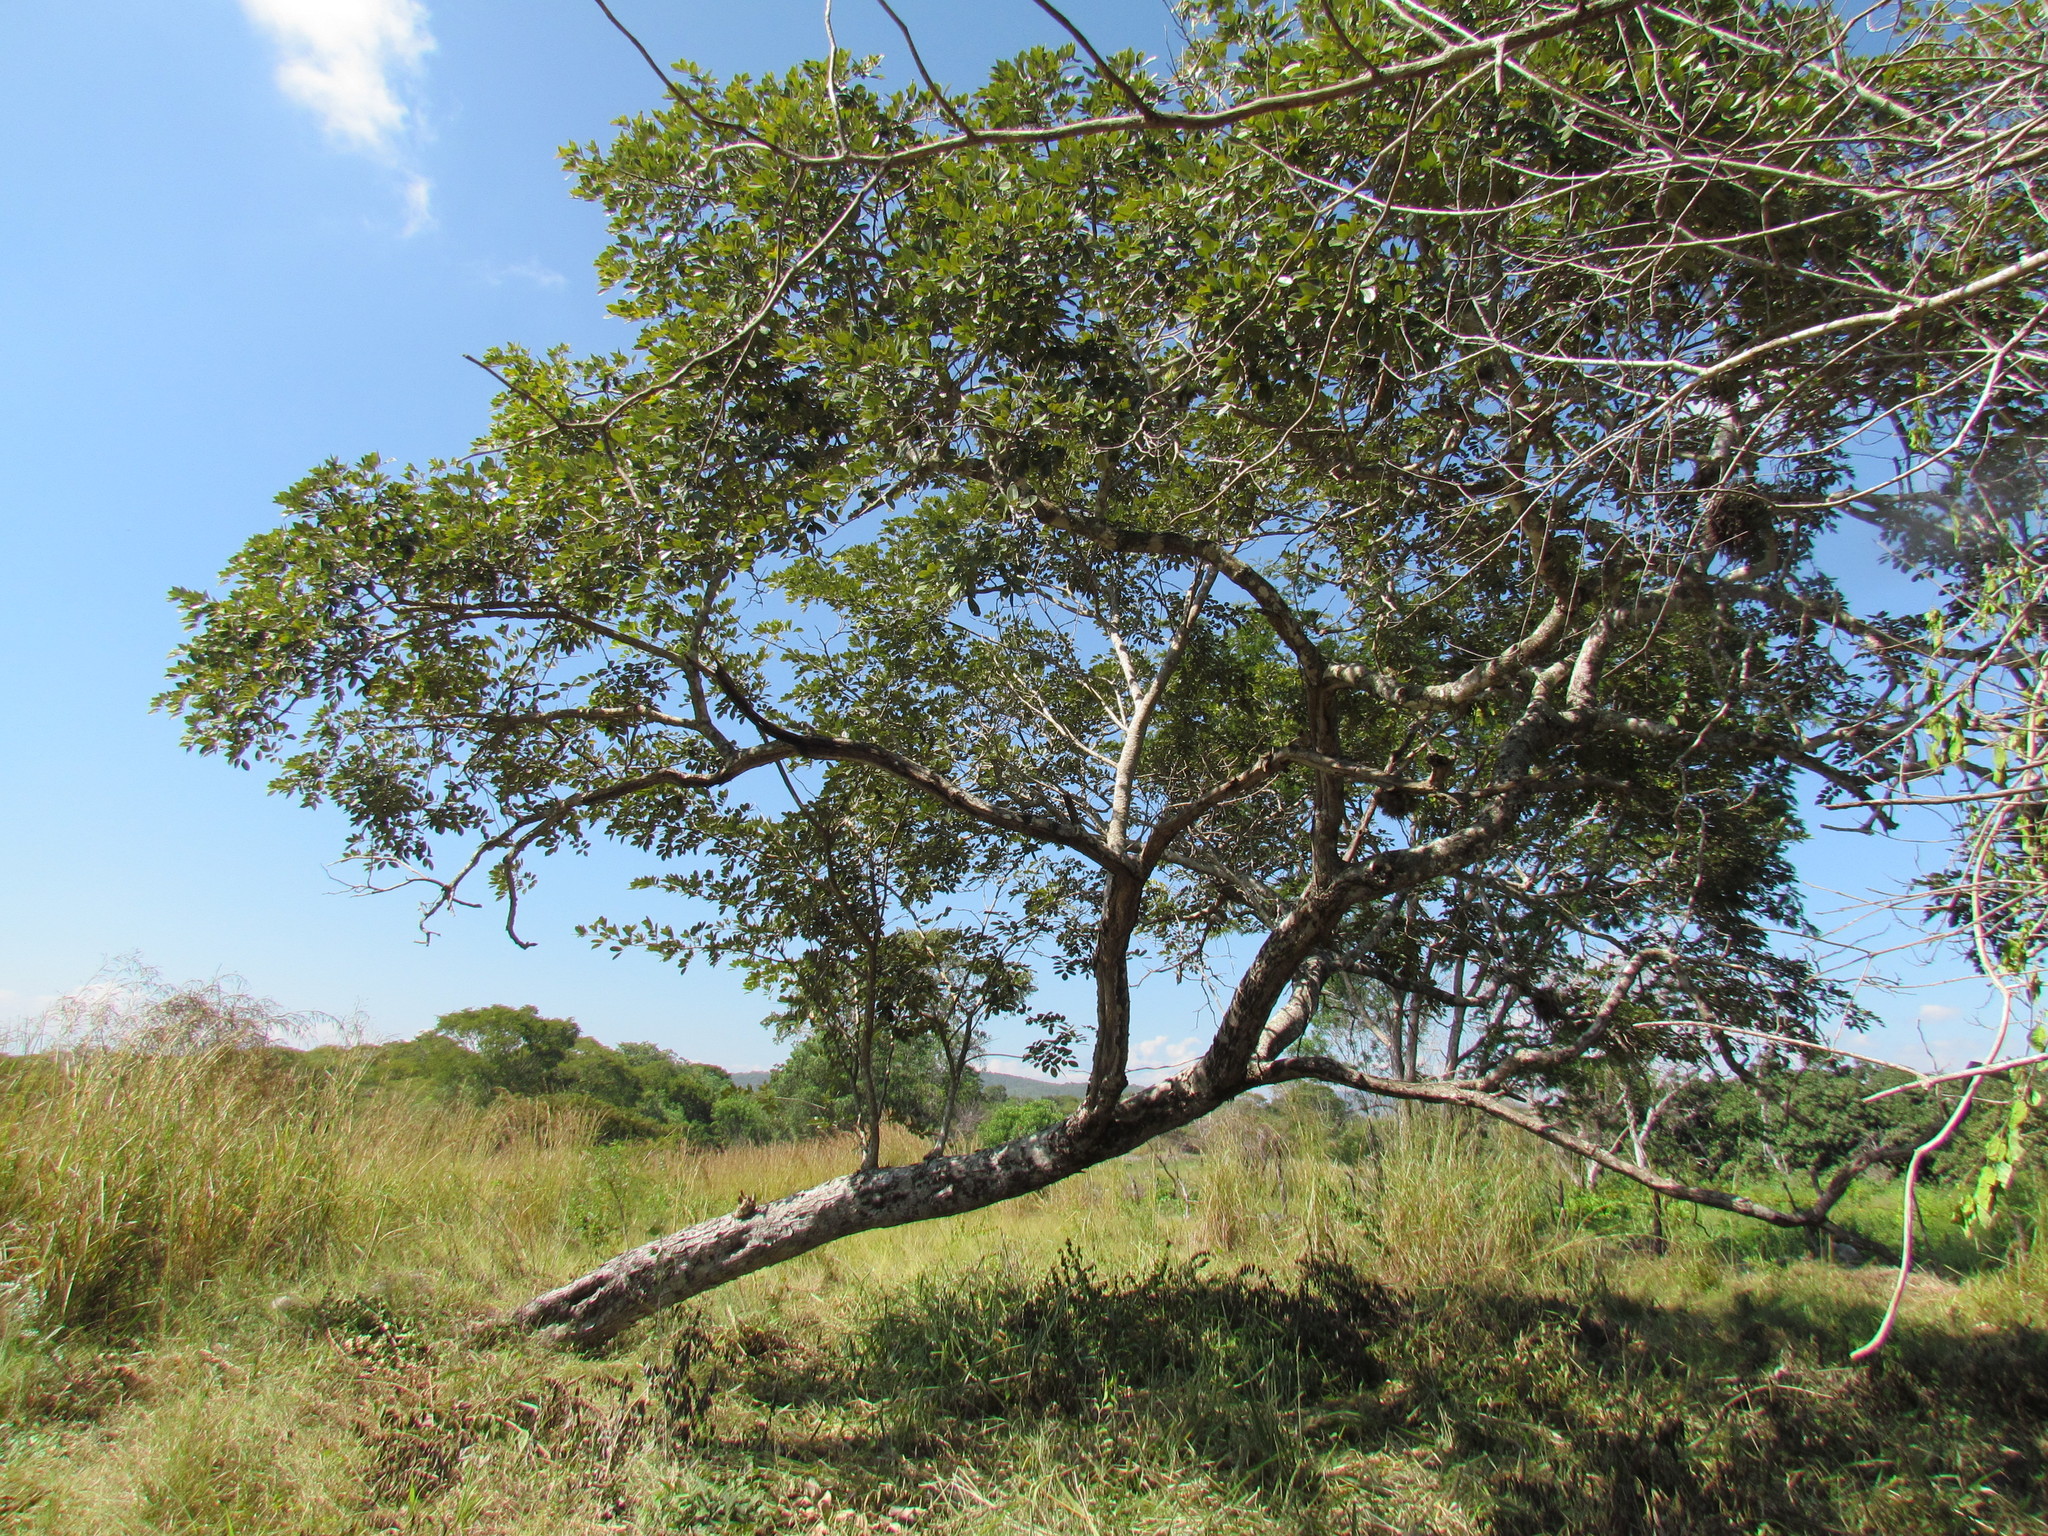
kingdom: Plantae
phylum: Tracheophyta
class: Magnoliopsida
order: Fabales
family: Fabaceae
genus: Piscidia
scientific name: Piscidia piscipula
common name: Florida fishpoison tree
